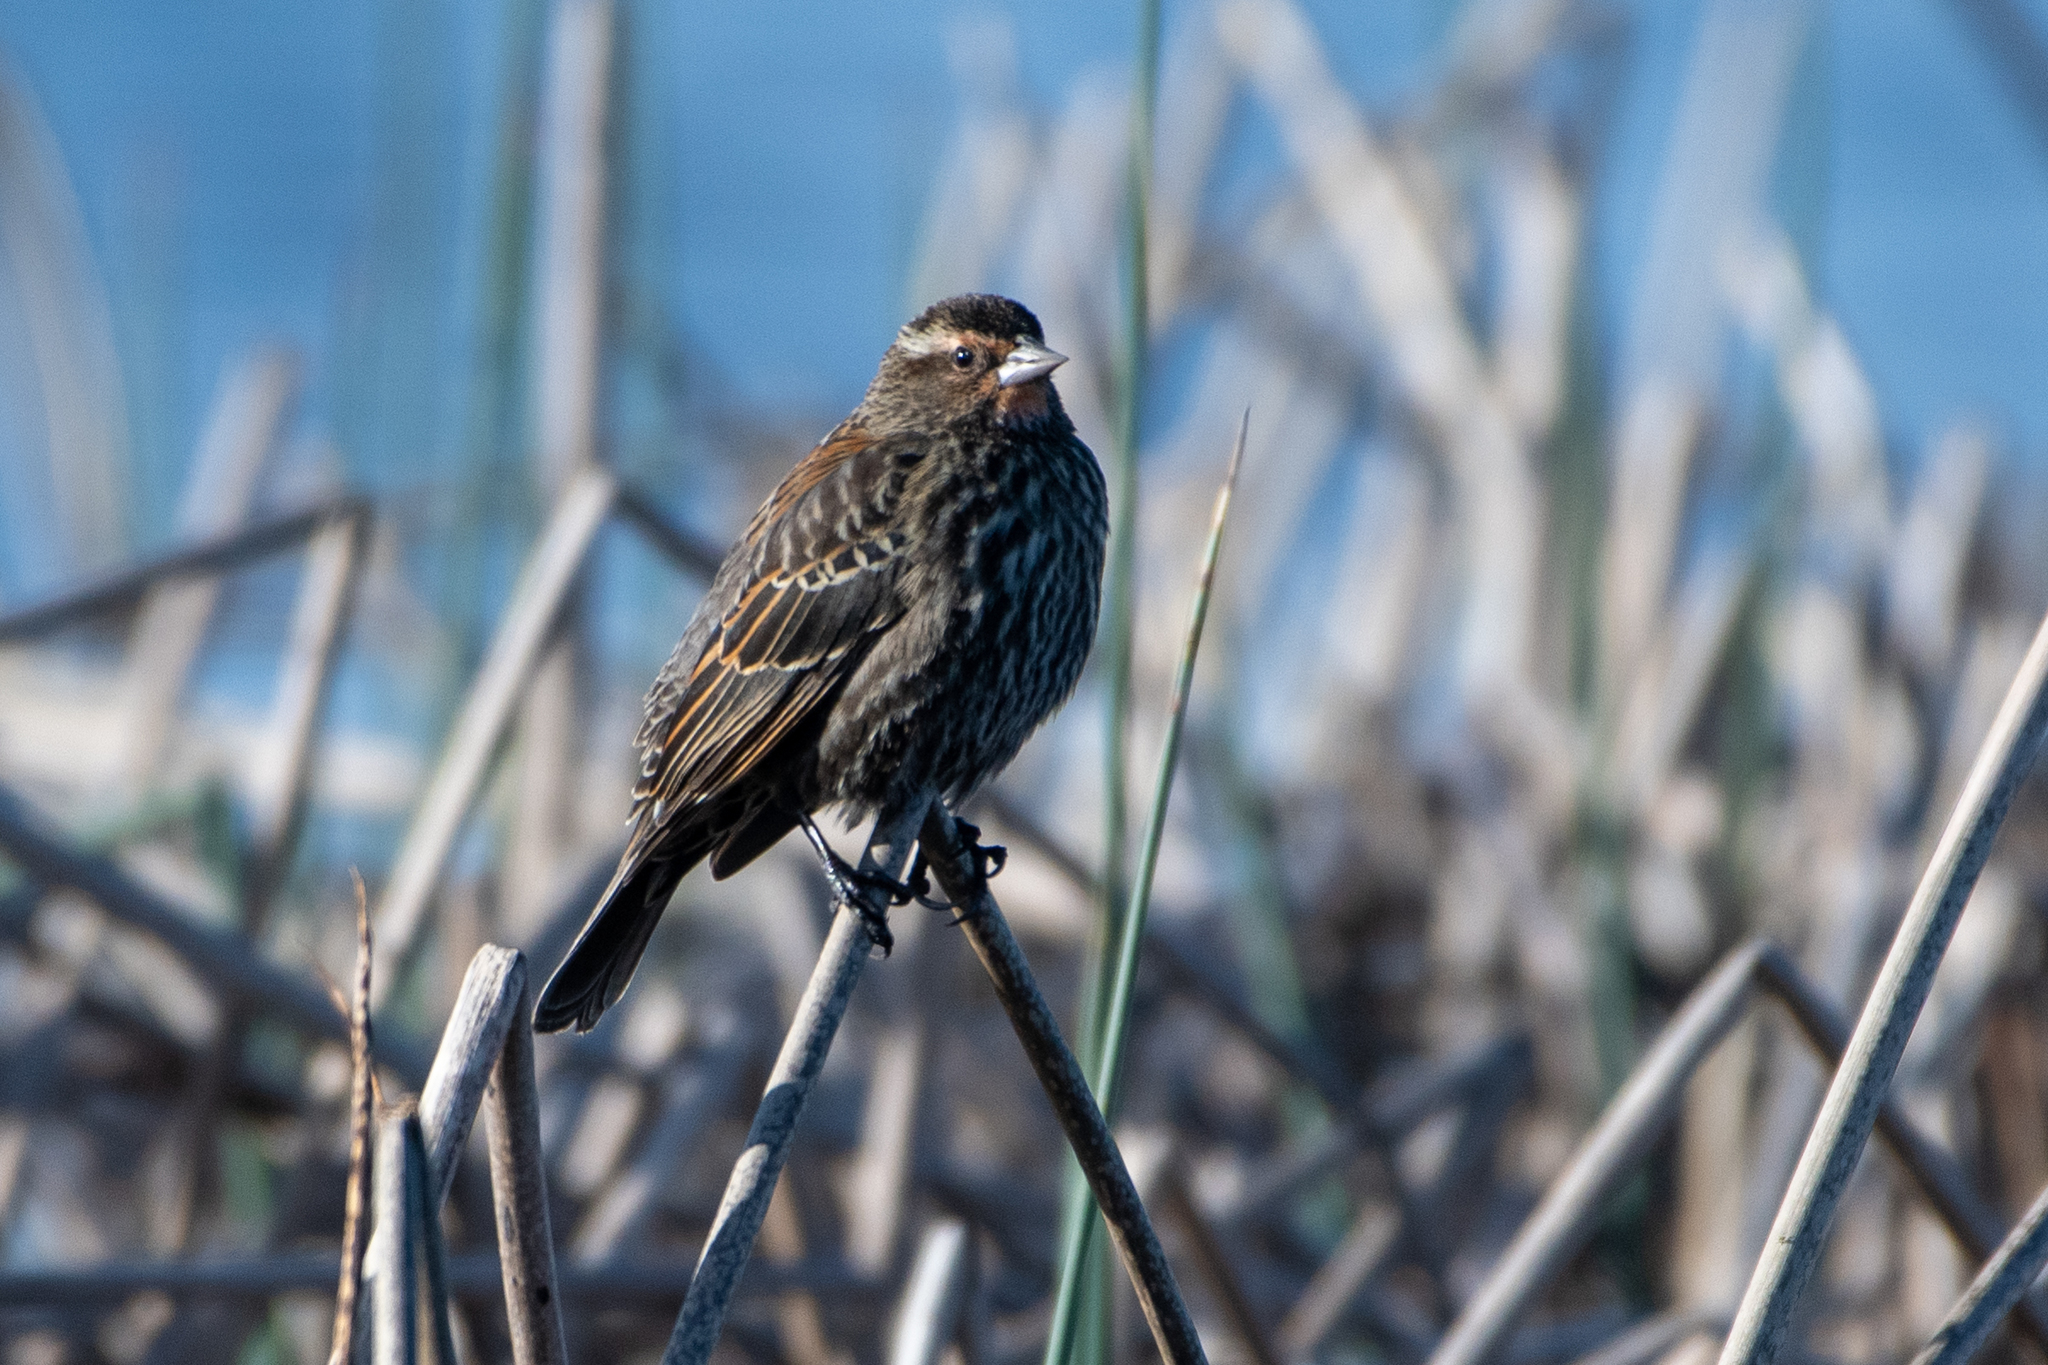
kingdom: Animalia
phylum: Chordata
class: Aves
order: Passeriformes
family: Icteridae
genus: Agelaius
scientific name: Agelaius phoeniceus
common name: Red-winged blackbird
